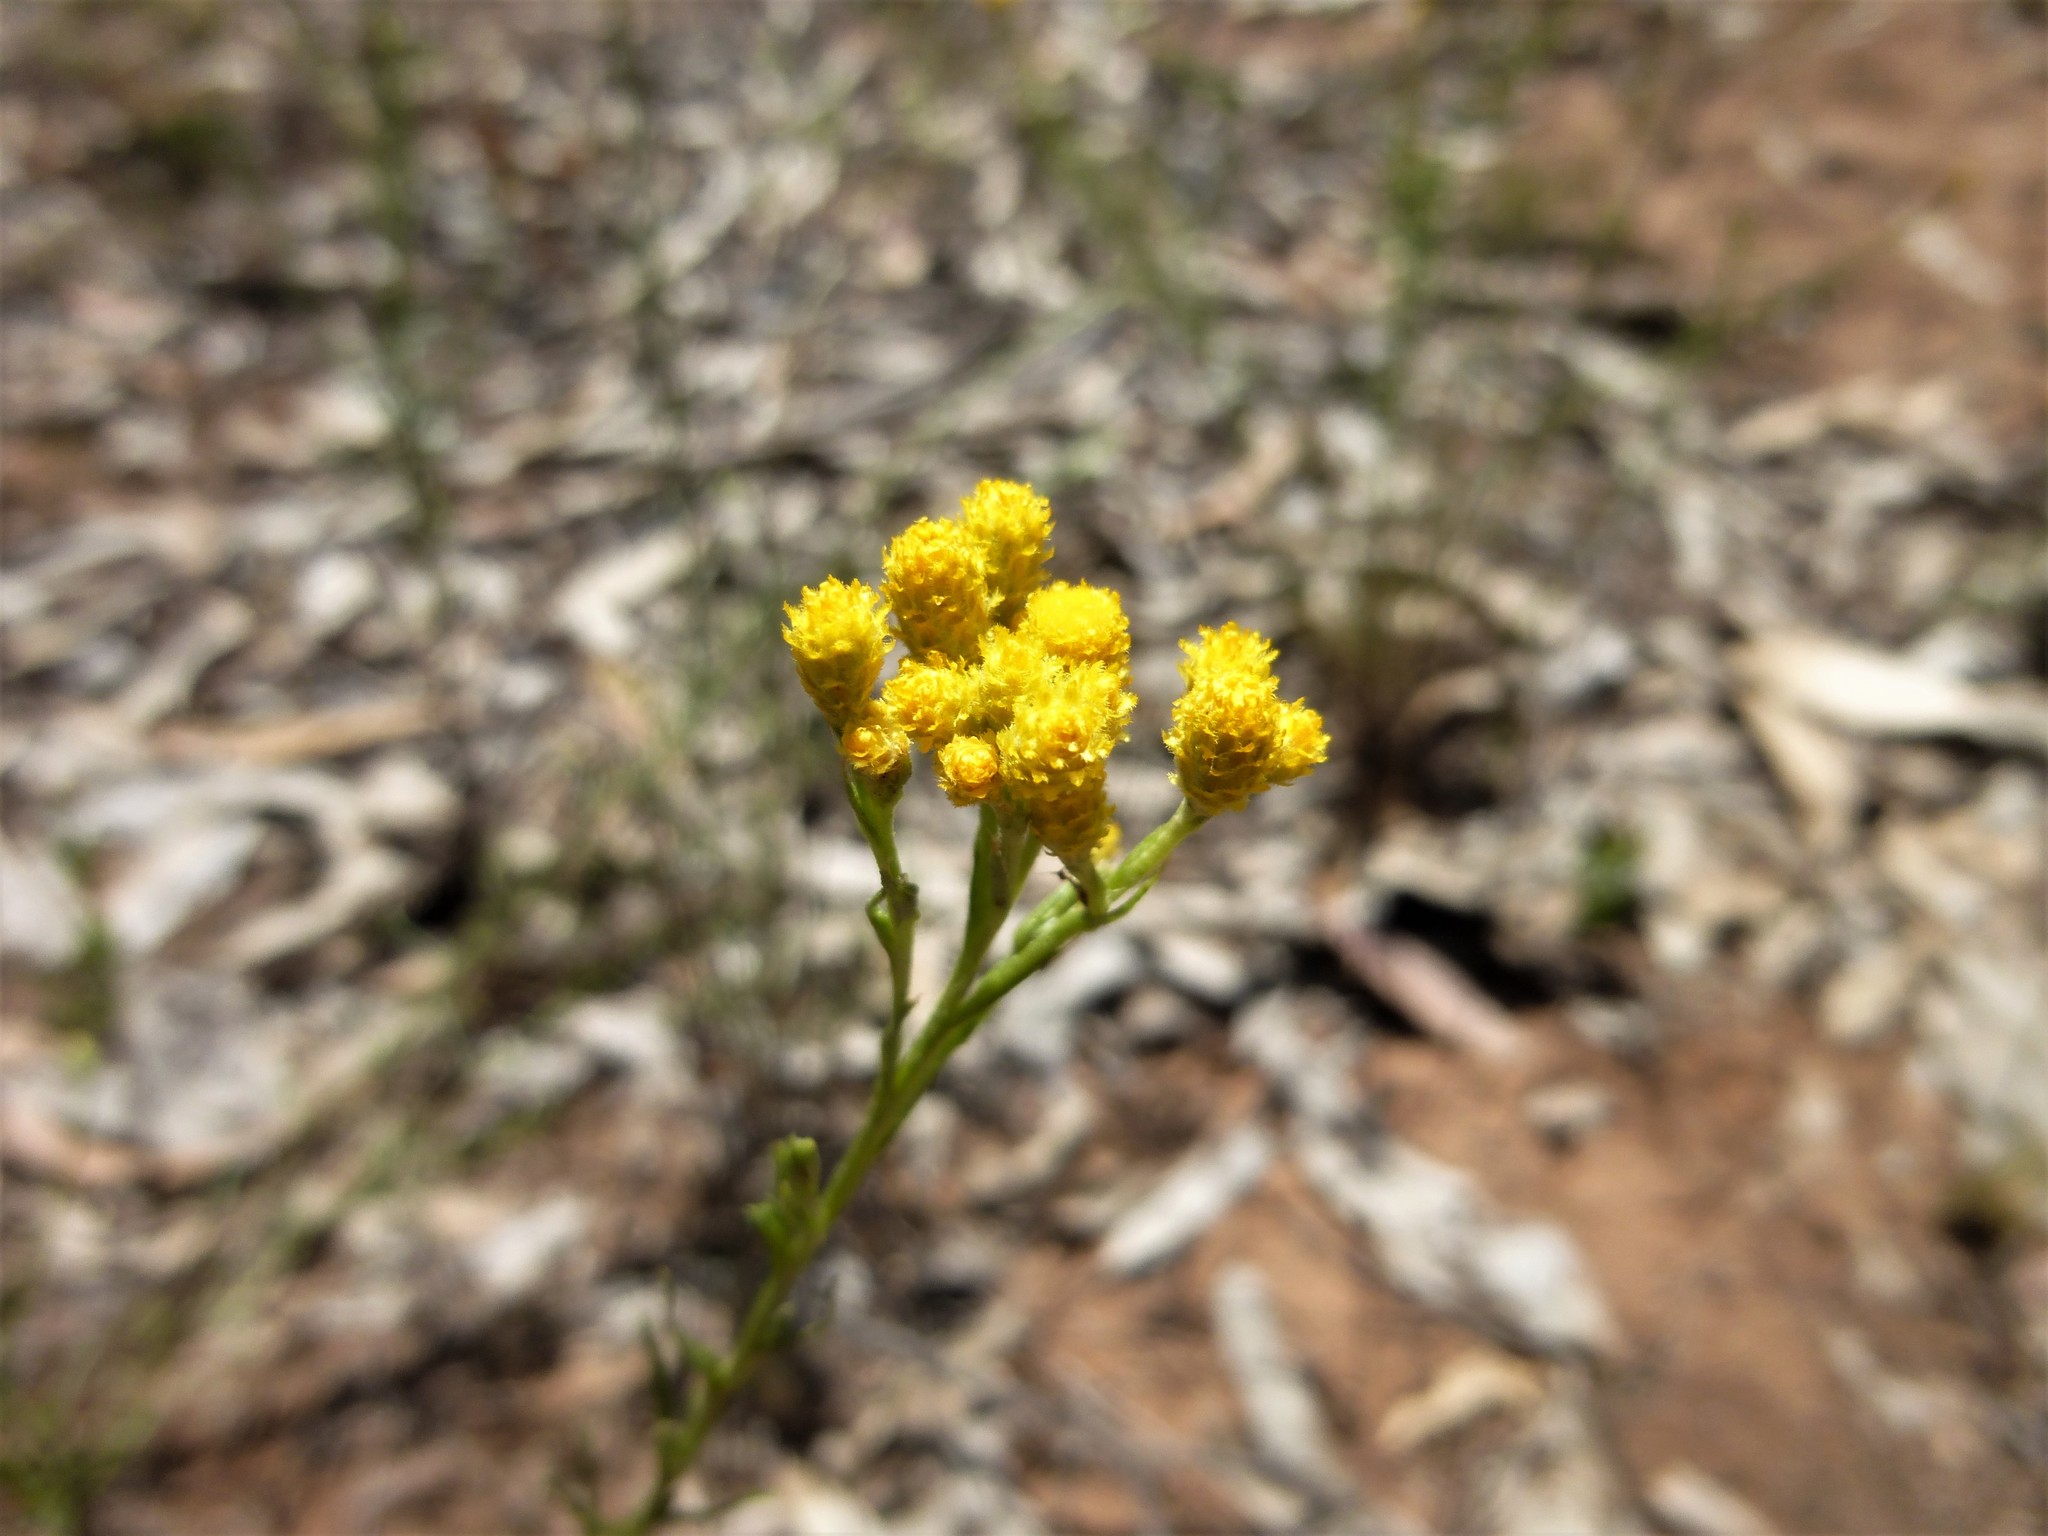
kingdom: Plantae
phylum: Tracheophyta
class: Magnoliopsida
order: Asterales
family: Asteraceae
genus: Chrysocephalum
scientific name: Chrysocephalum semipapposum
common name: Clustered everlasting
